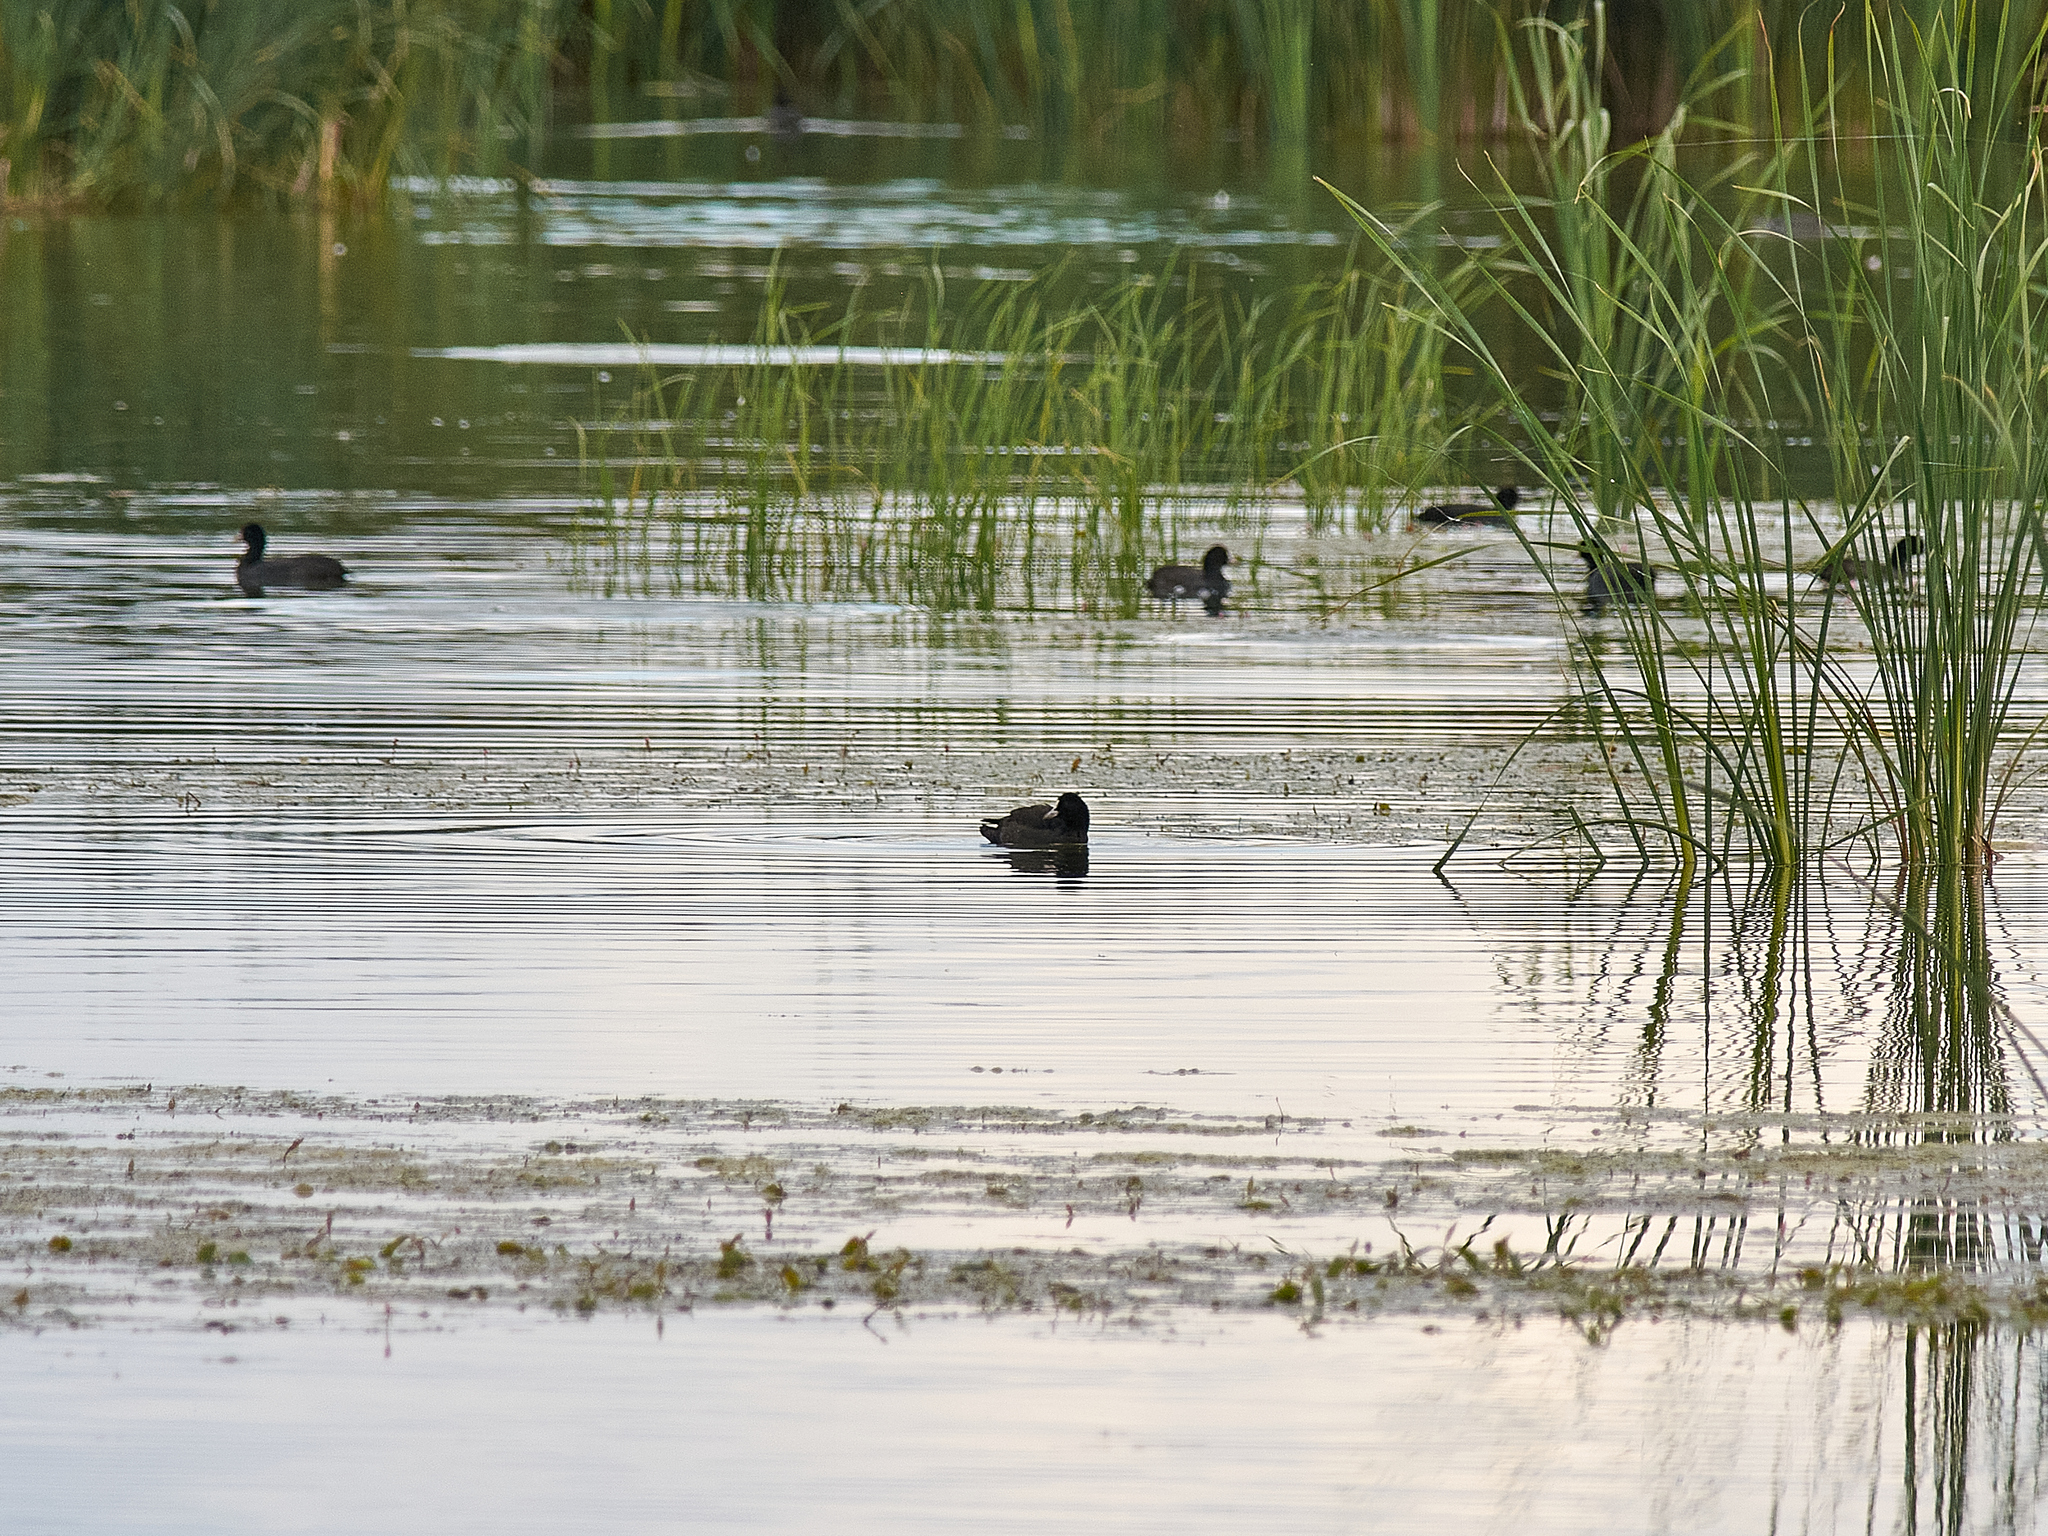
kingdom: Animalia
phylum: Chordata
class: Aves
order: Gruiformes
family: Rallidae
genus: Fulica
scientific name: Fulica atra
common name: Eurasian coot
